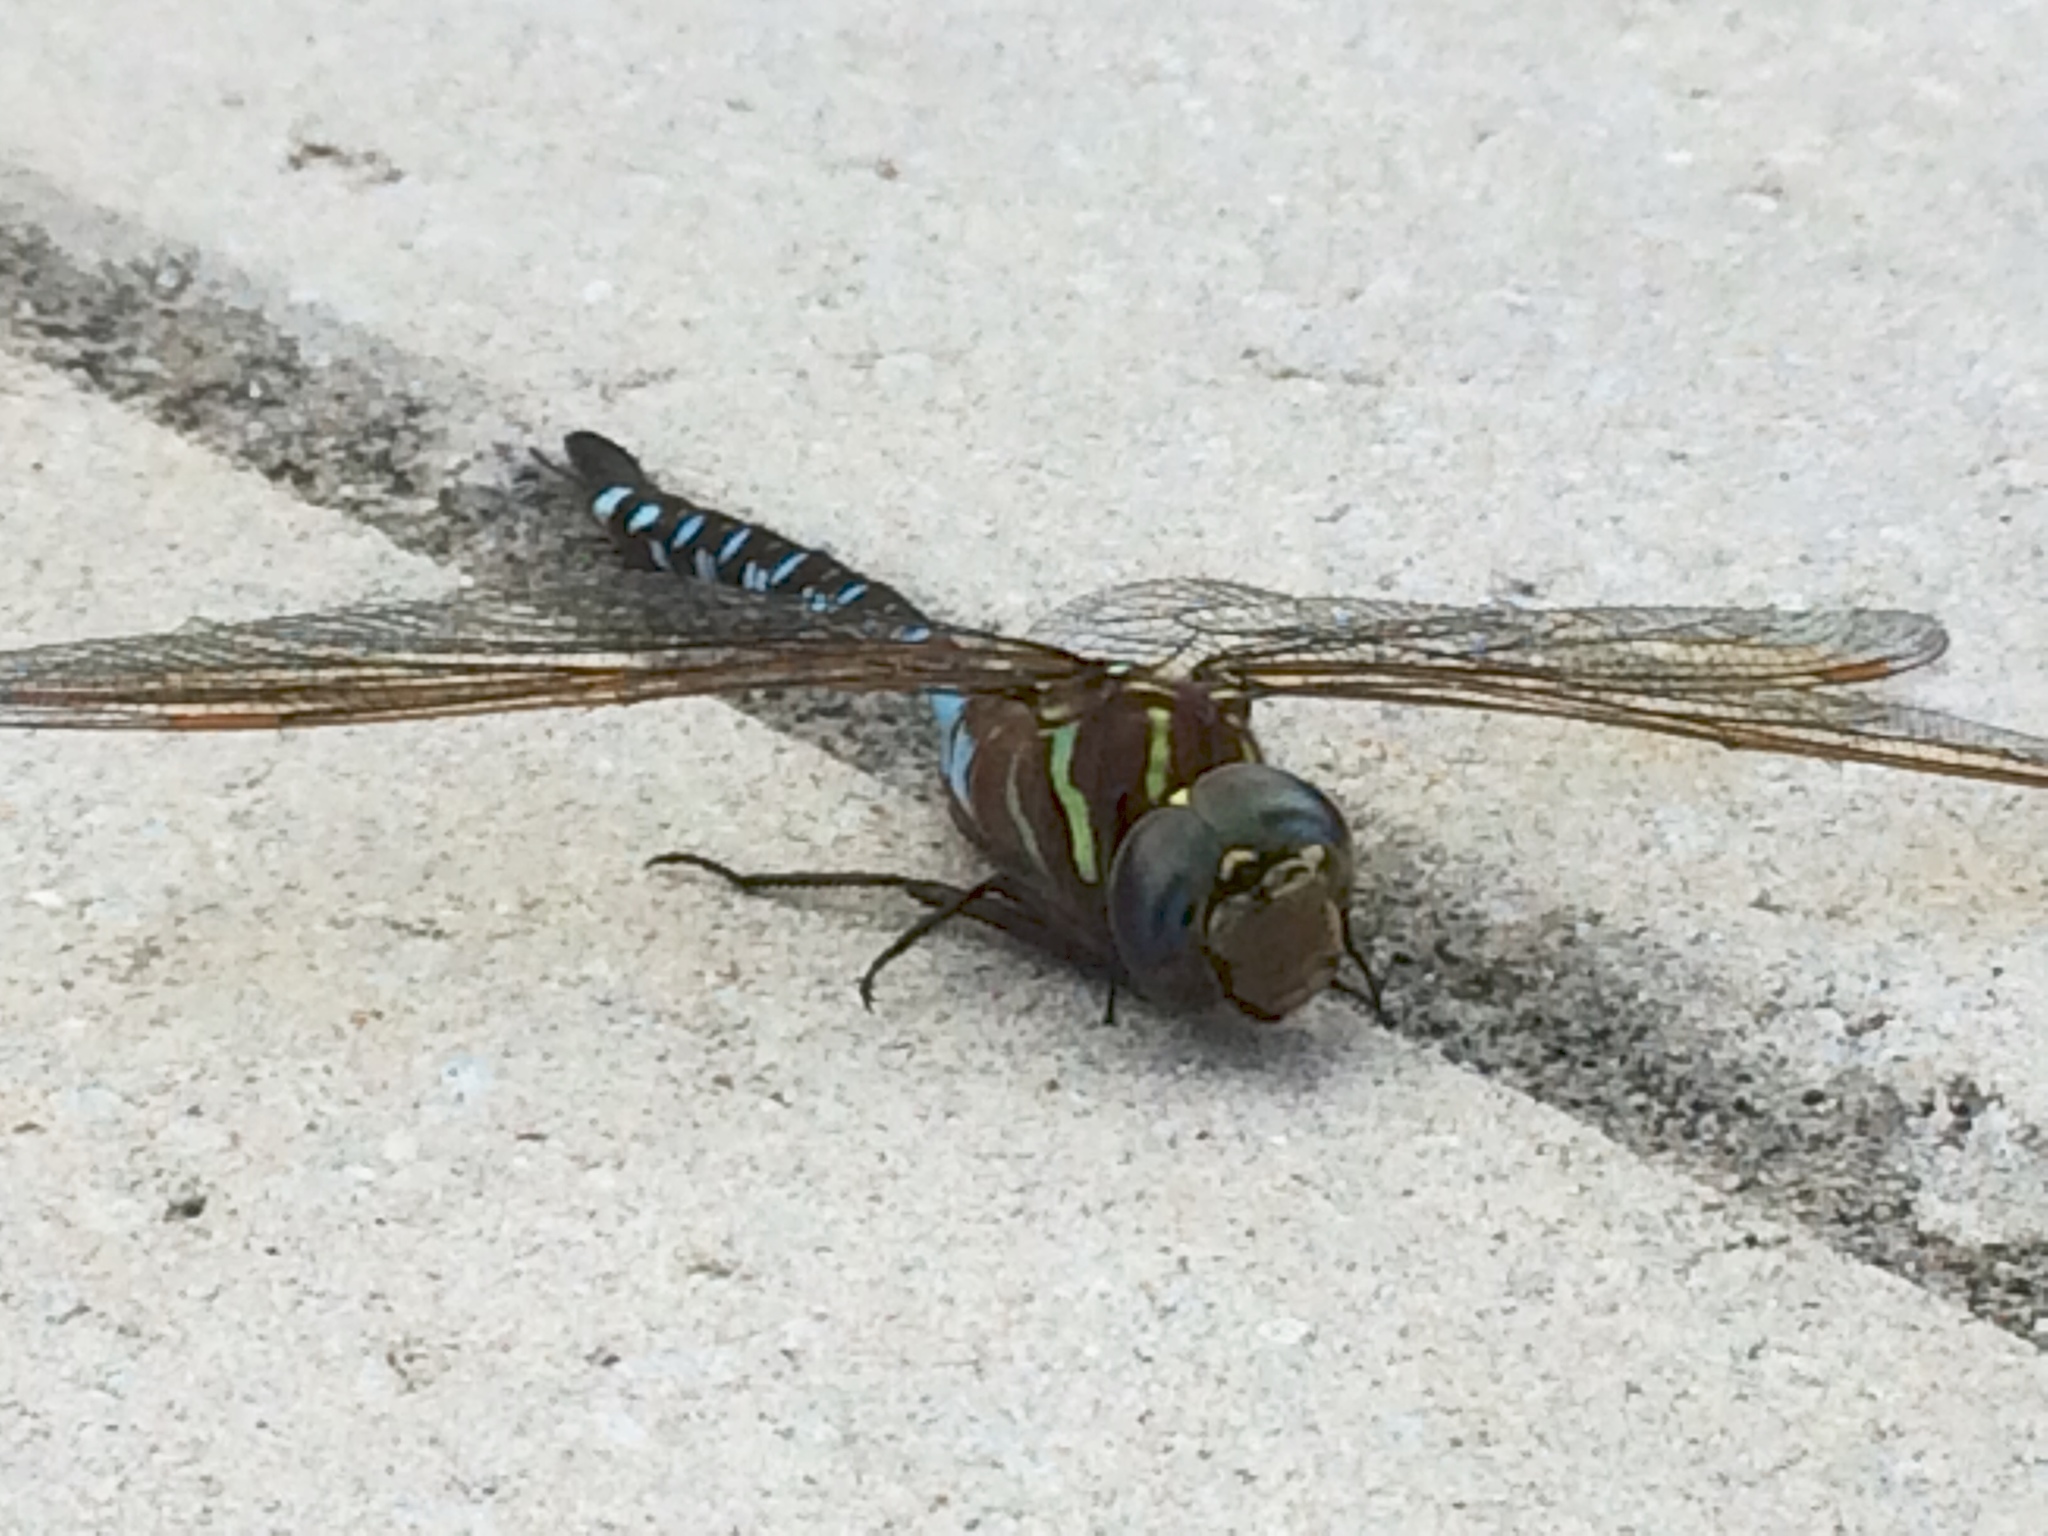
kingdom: Animalia
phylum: Arthropoda
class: Insecta
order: Odonata
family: Aeshnidae
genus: Aeshna
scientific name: Aeshna constricta
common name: Lance-tipped darner
